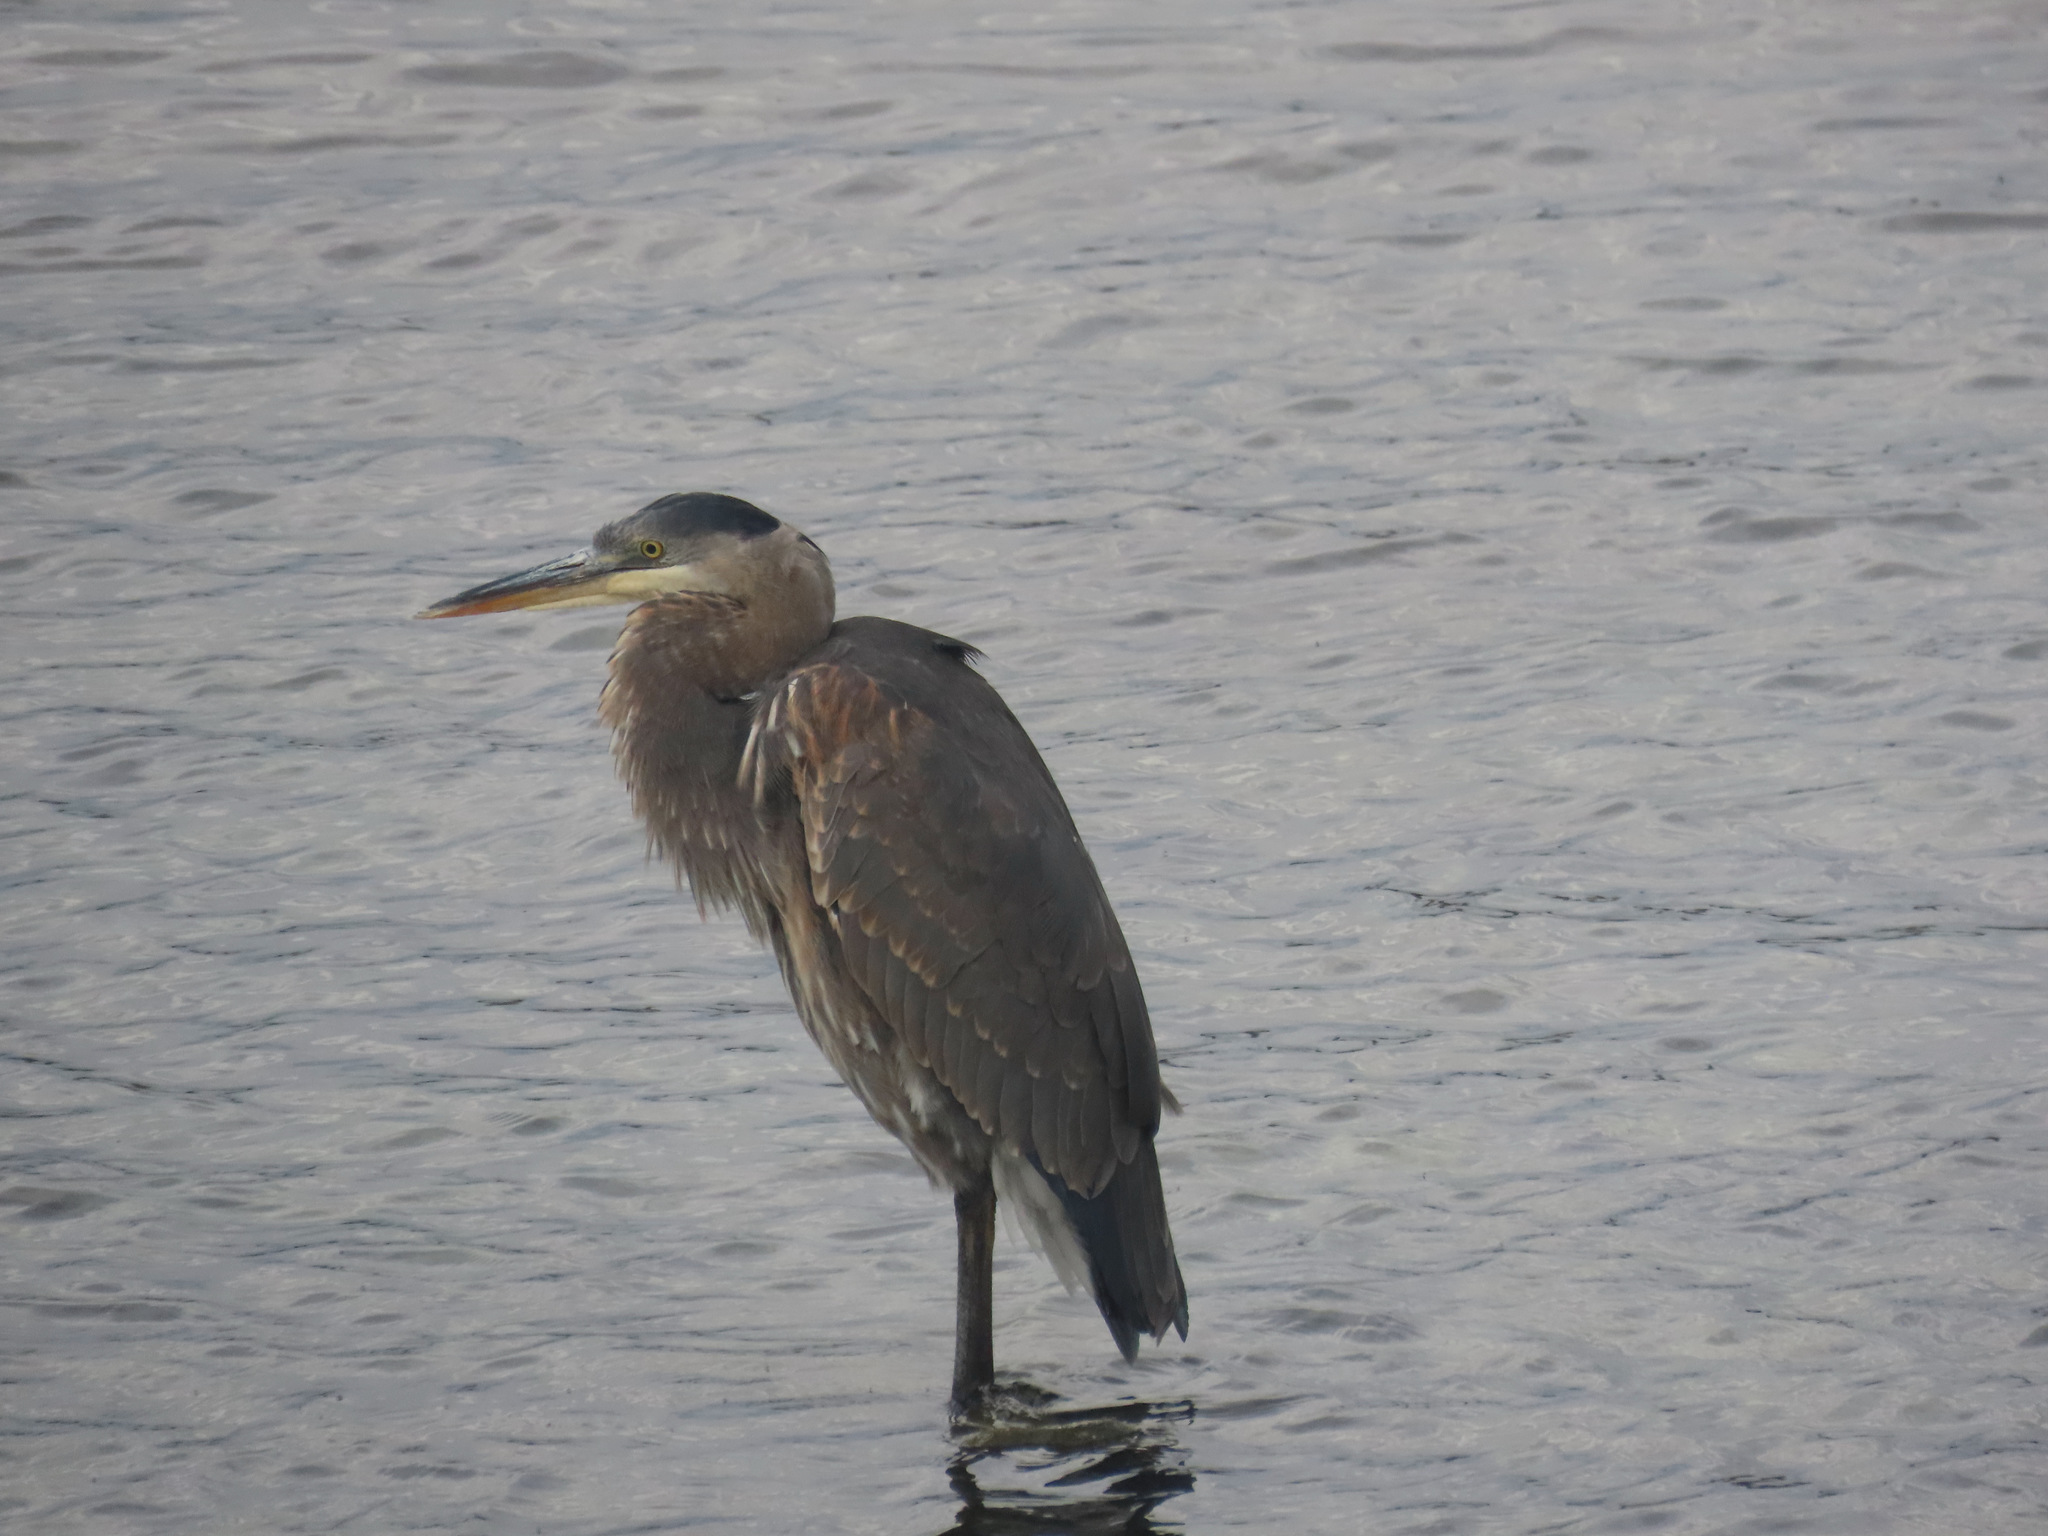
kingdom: Animalia
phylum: Chordata
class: Aves
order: Pelecaniformes
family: Ardeidae
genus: Ardea
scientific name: Ardea herodias
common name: Great blue heron
